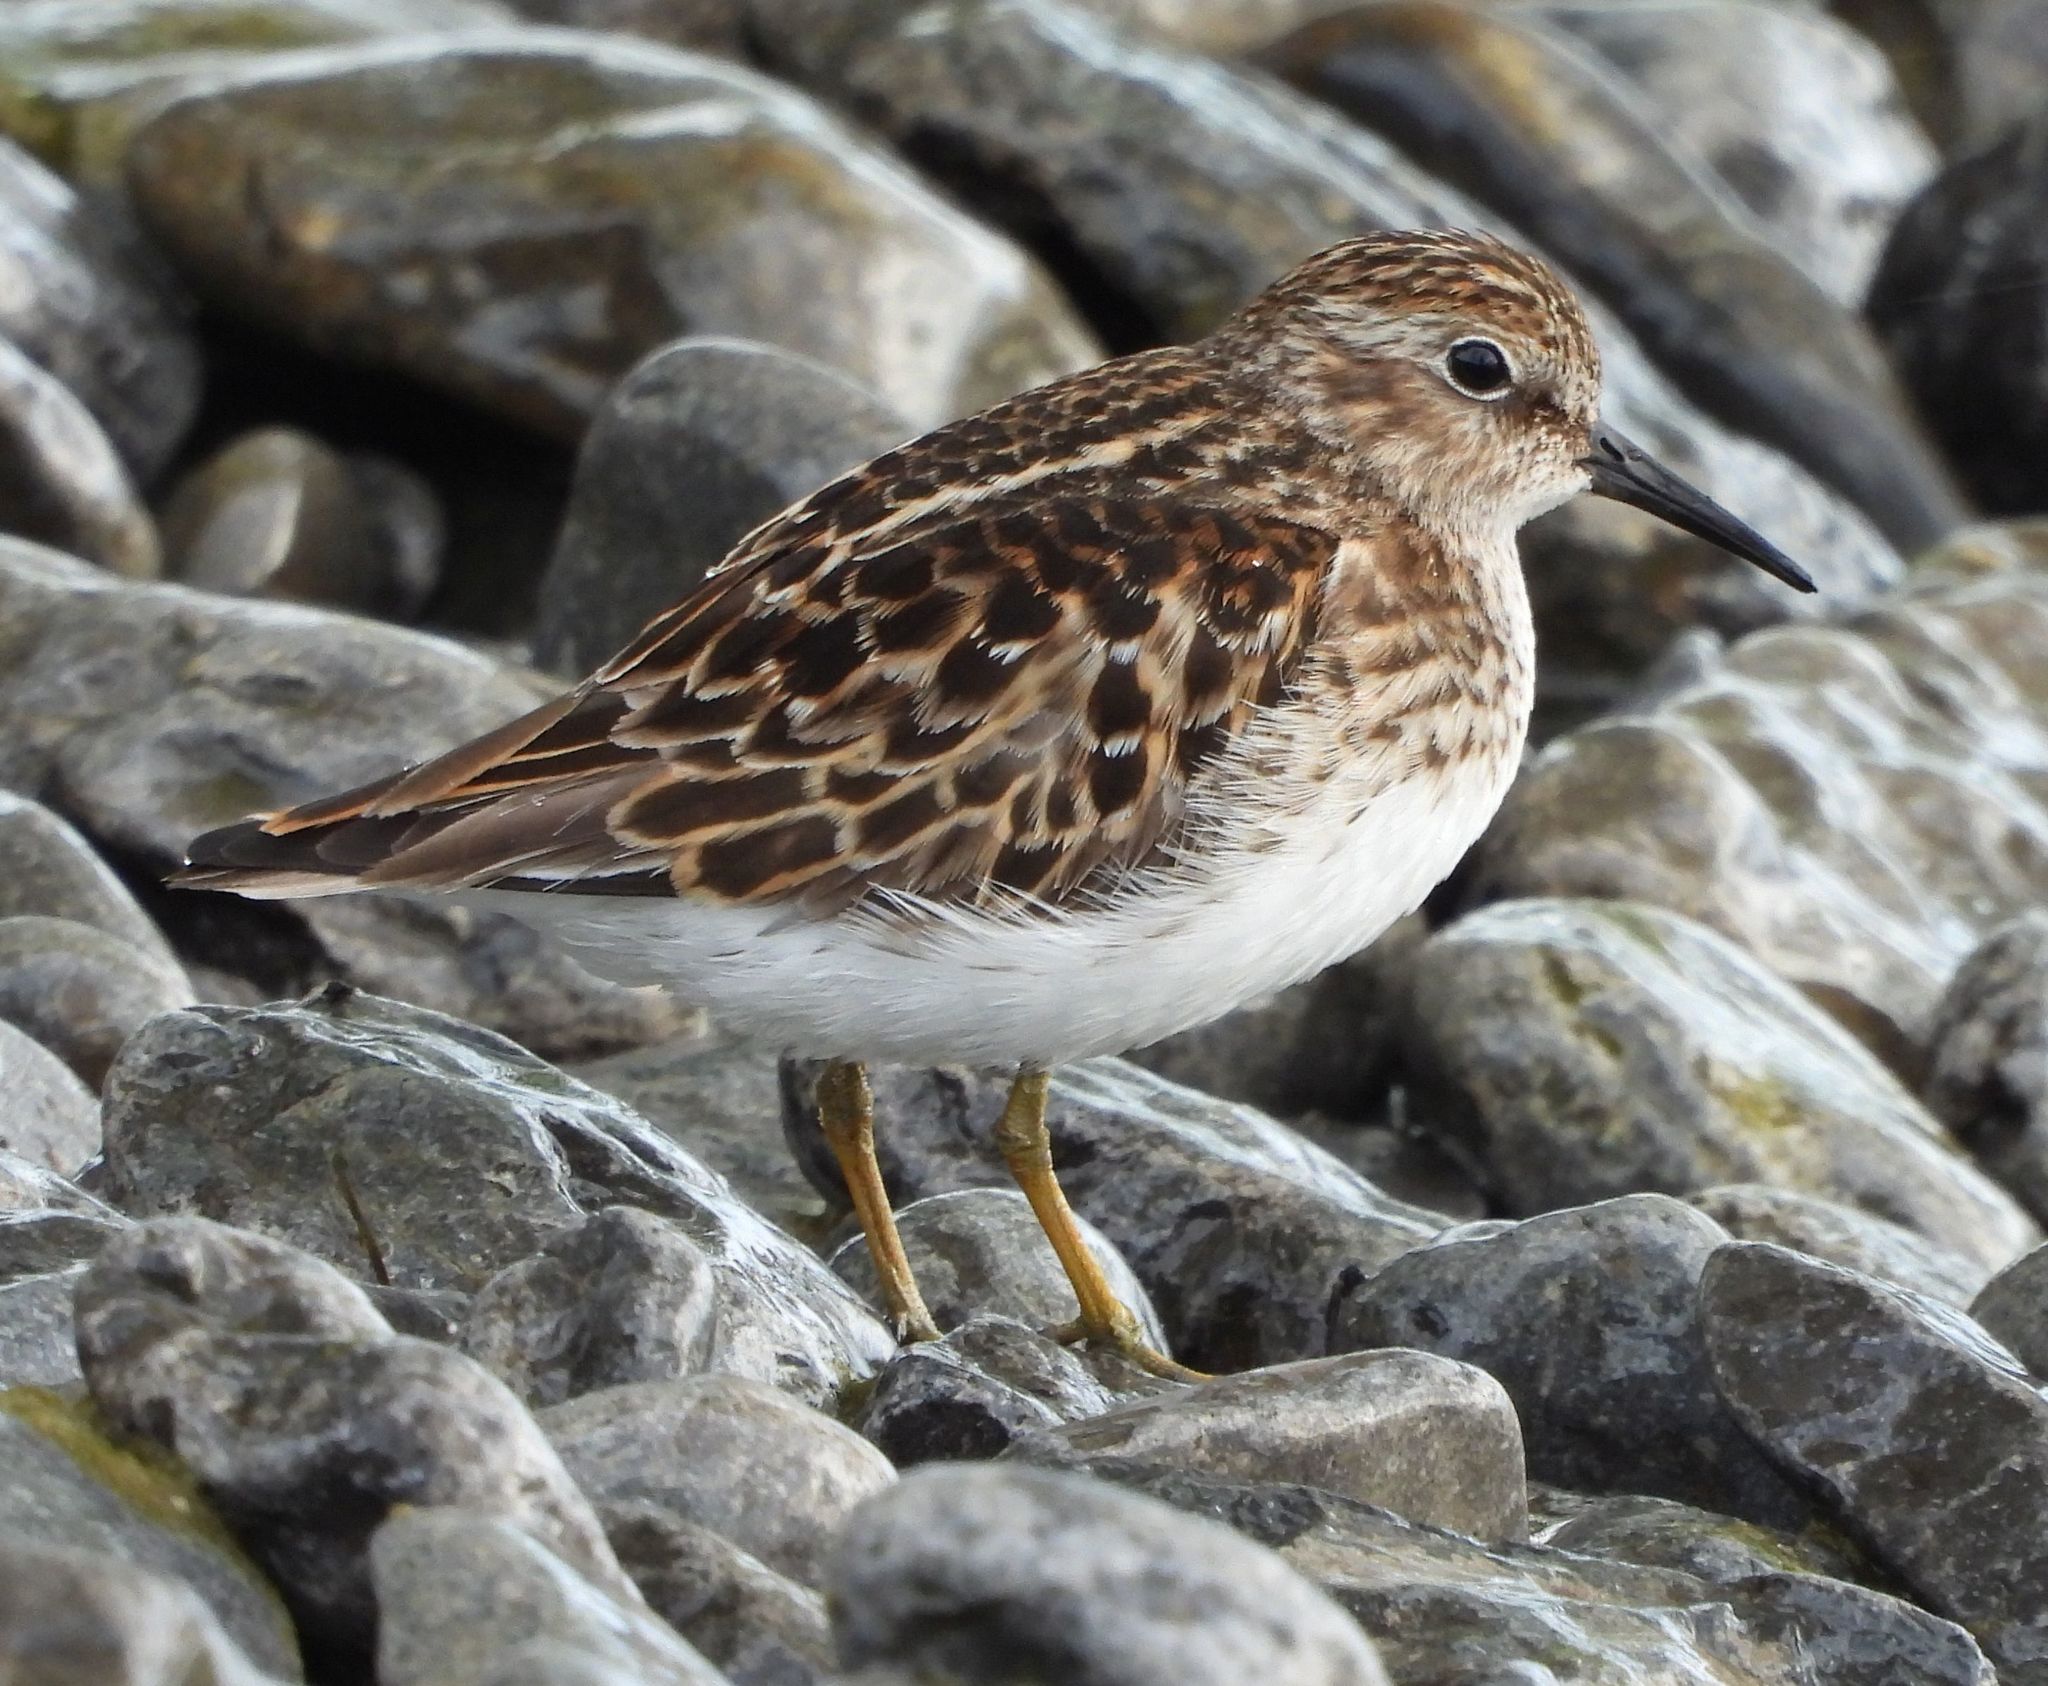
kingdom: Animalia
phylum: Chordata
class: Aves
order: Charadriiformes
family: Scolopacidae
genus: Calidris
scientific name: Calidris minutilla
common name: Least sandpiper
